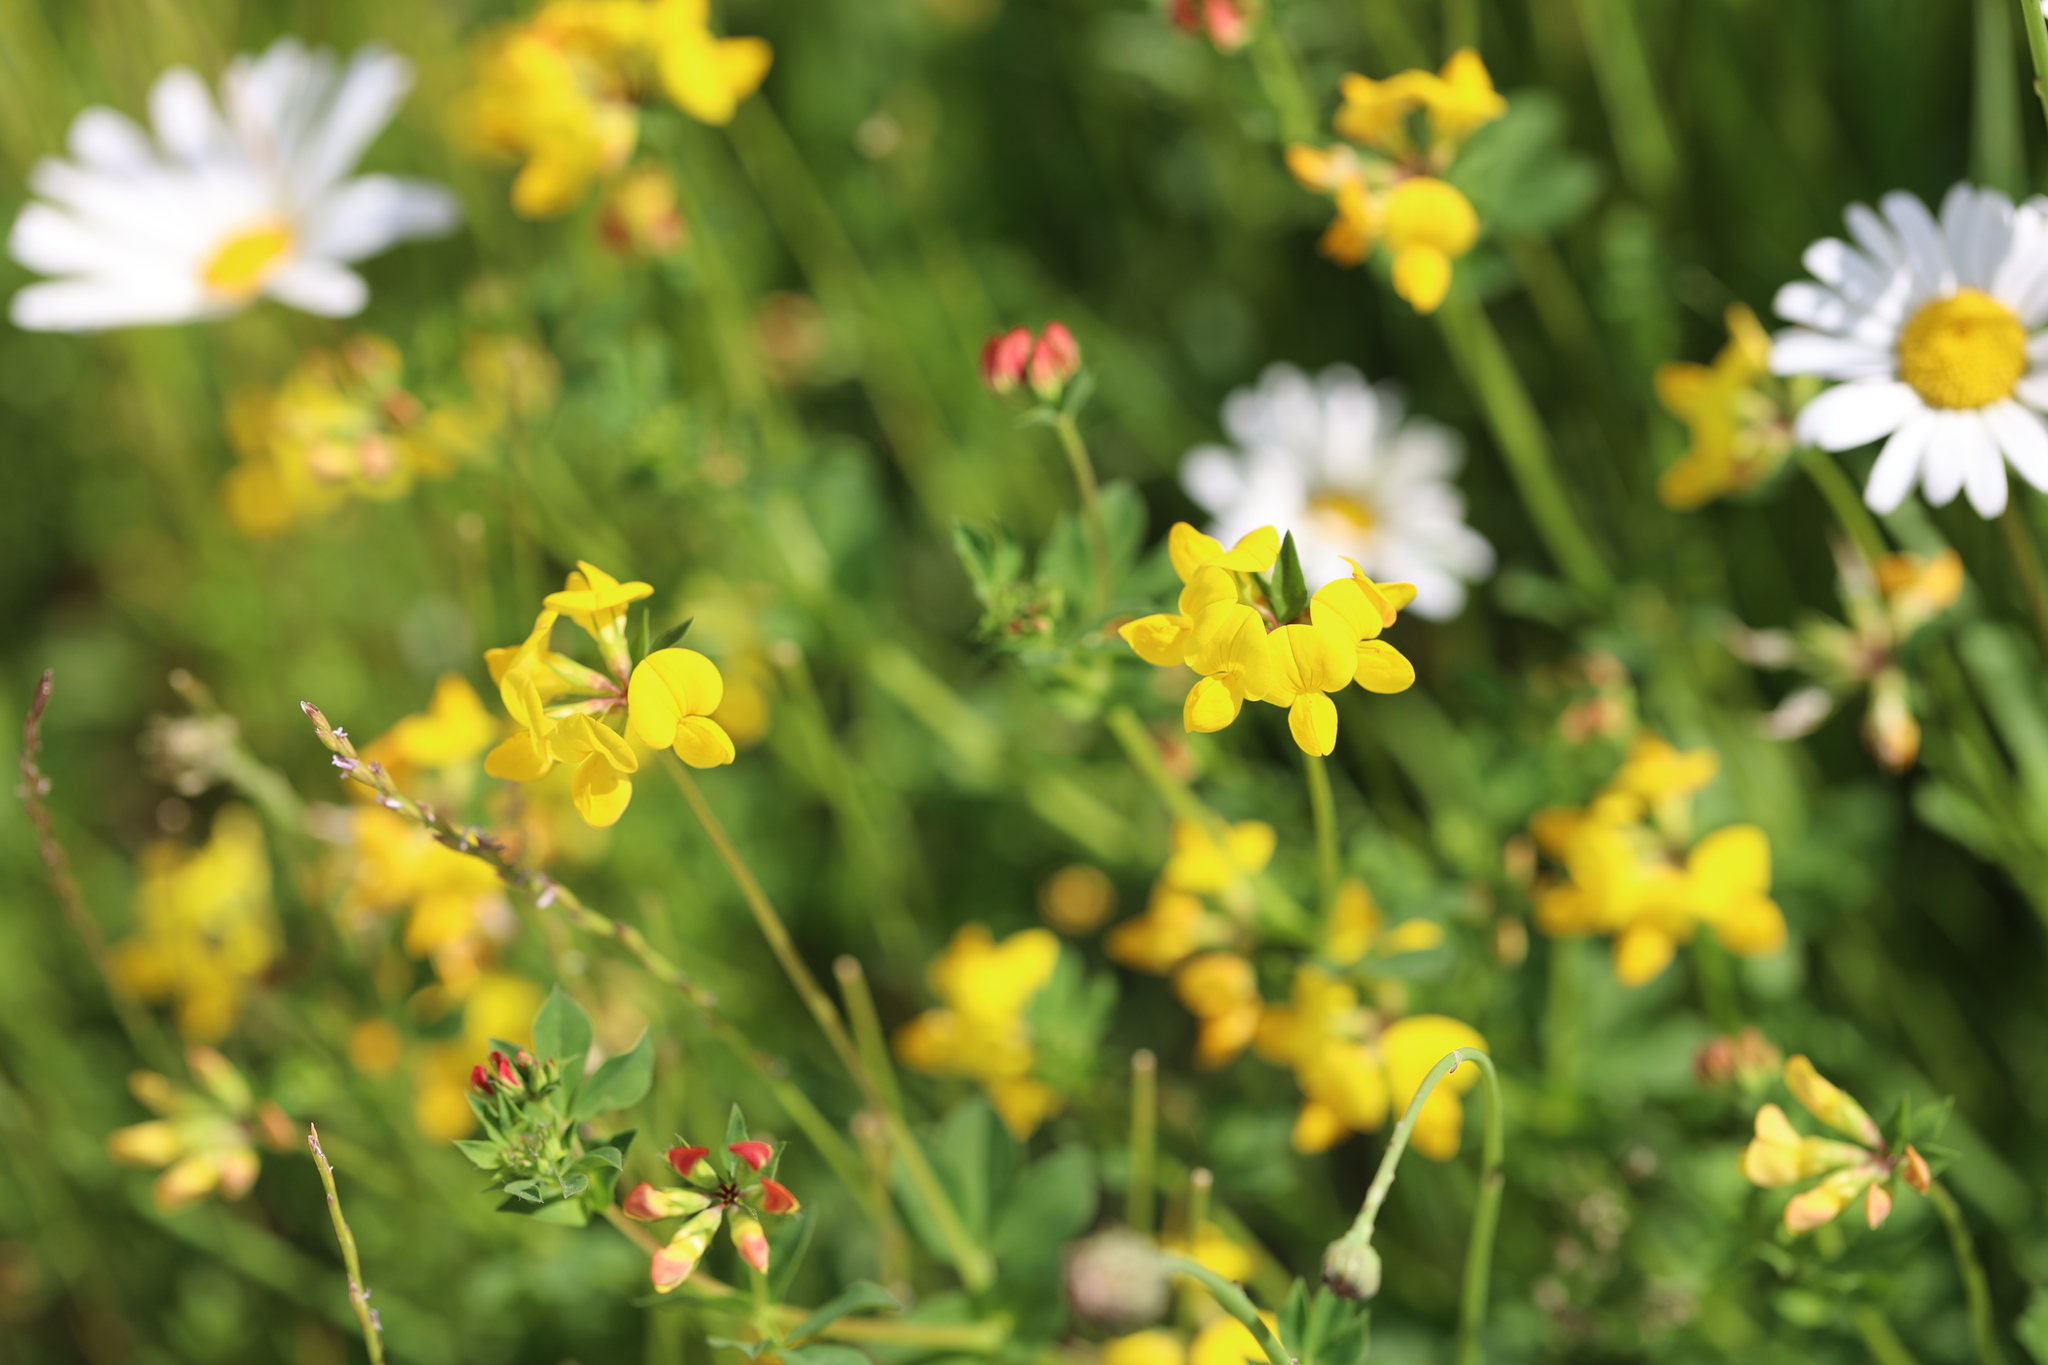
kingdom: Plantae
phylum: Tracheophyta
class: Magnoliopsida
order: Fabales
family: Fabaceae
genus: Lotus
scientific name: Lotus corniculatus
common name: Common bird's-foot-trefoil
